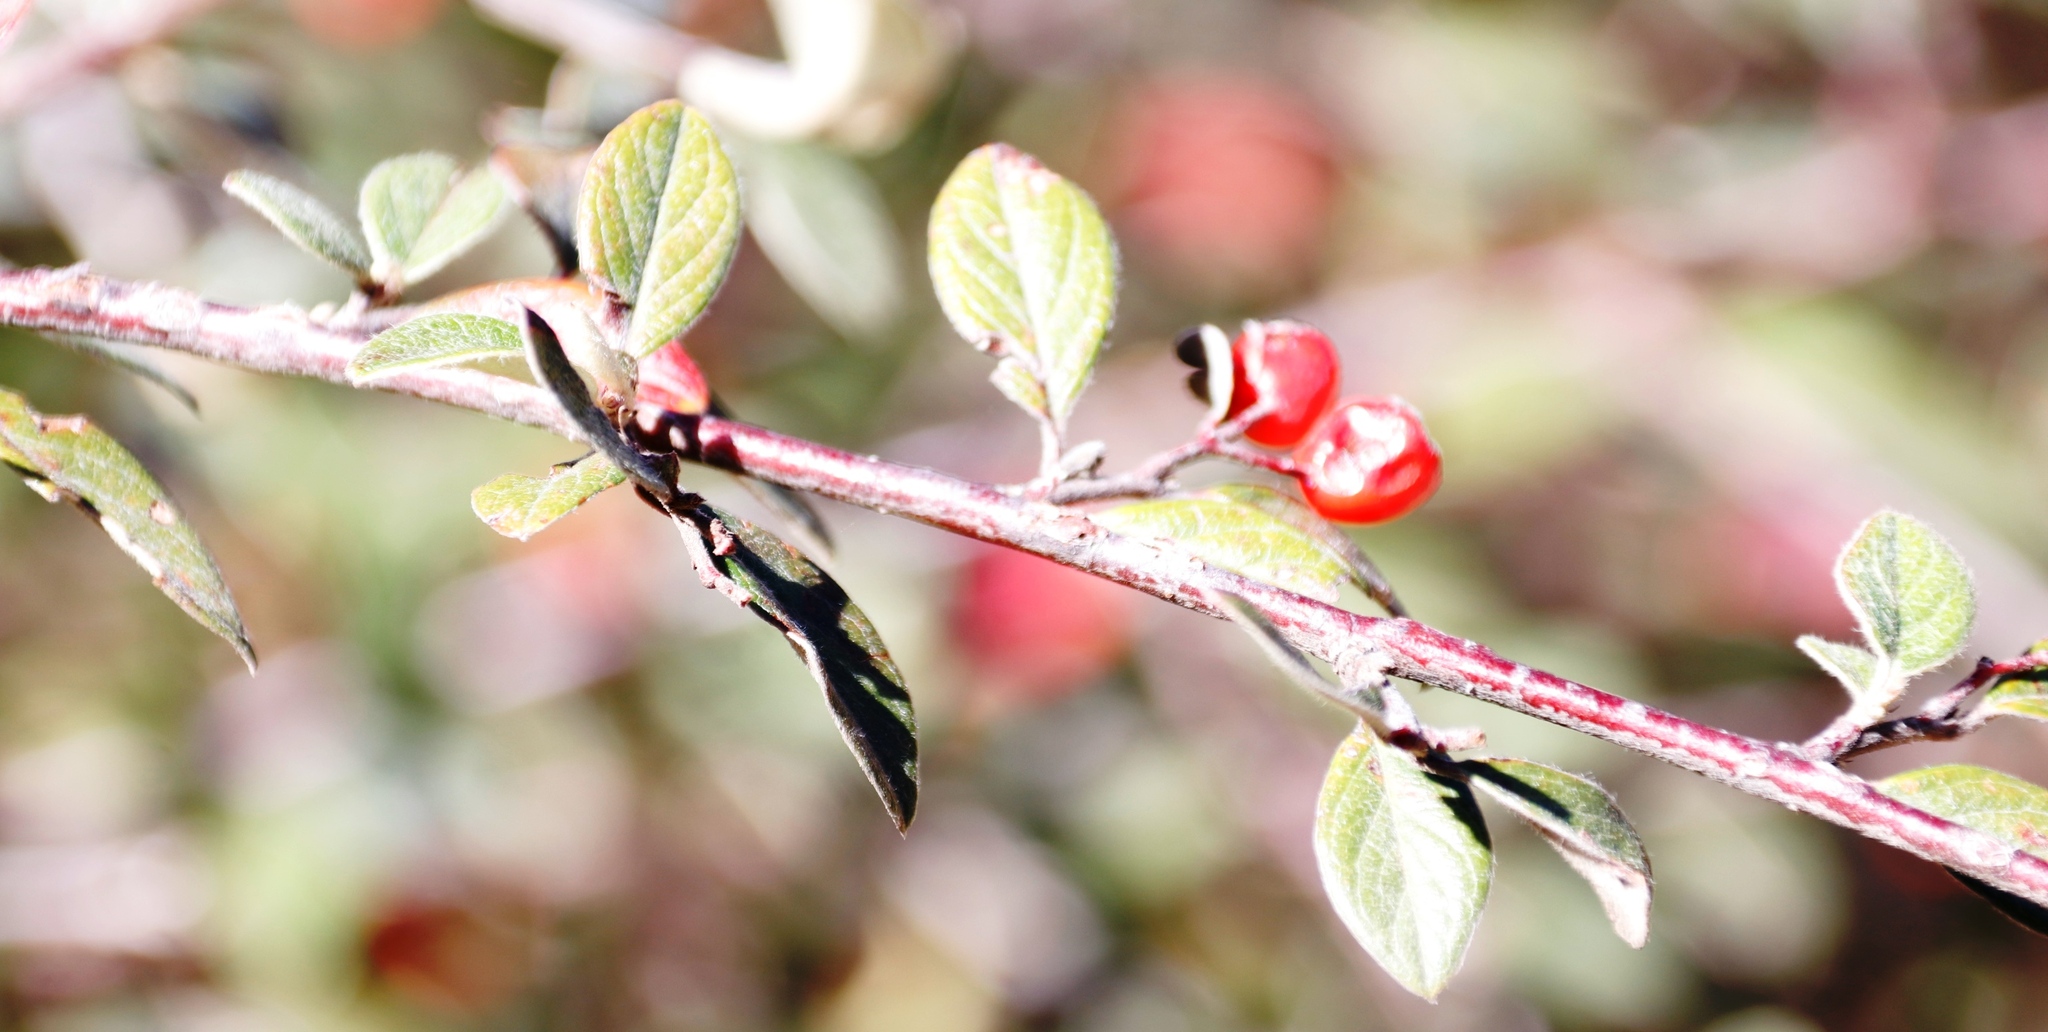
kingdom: Plantae
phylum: Tracheophyta
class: Magnoliopsida
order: Rosales
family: Rosaceae
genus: Cotoneaster
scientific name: Cotoneaster franchetii
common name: Franchet's cotoneaster
